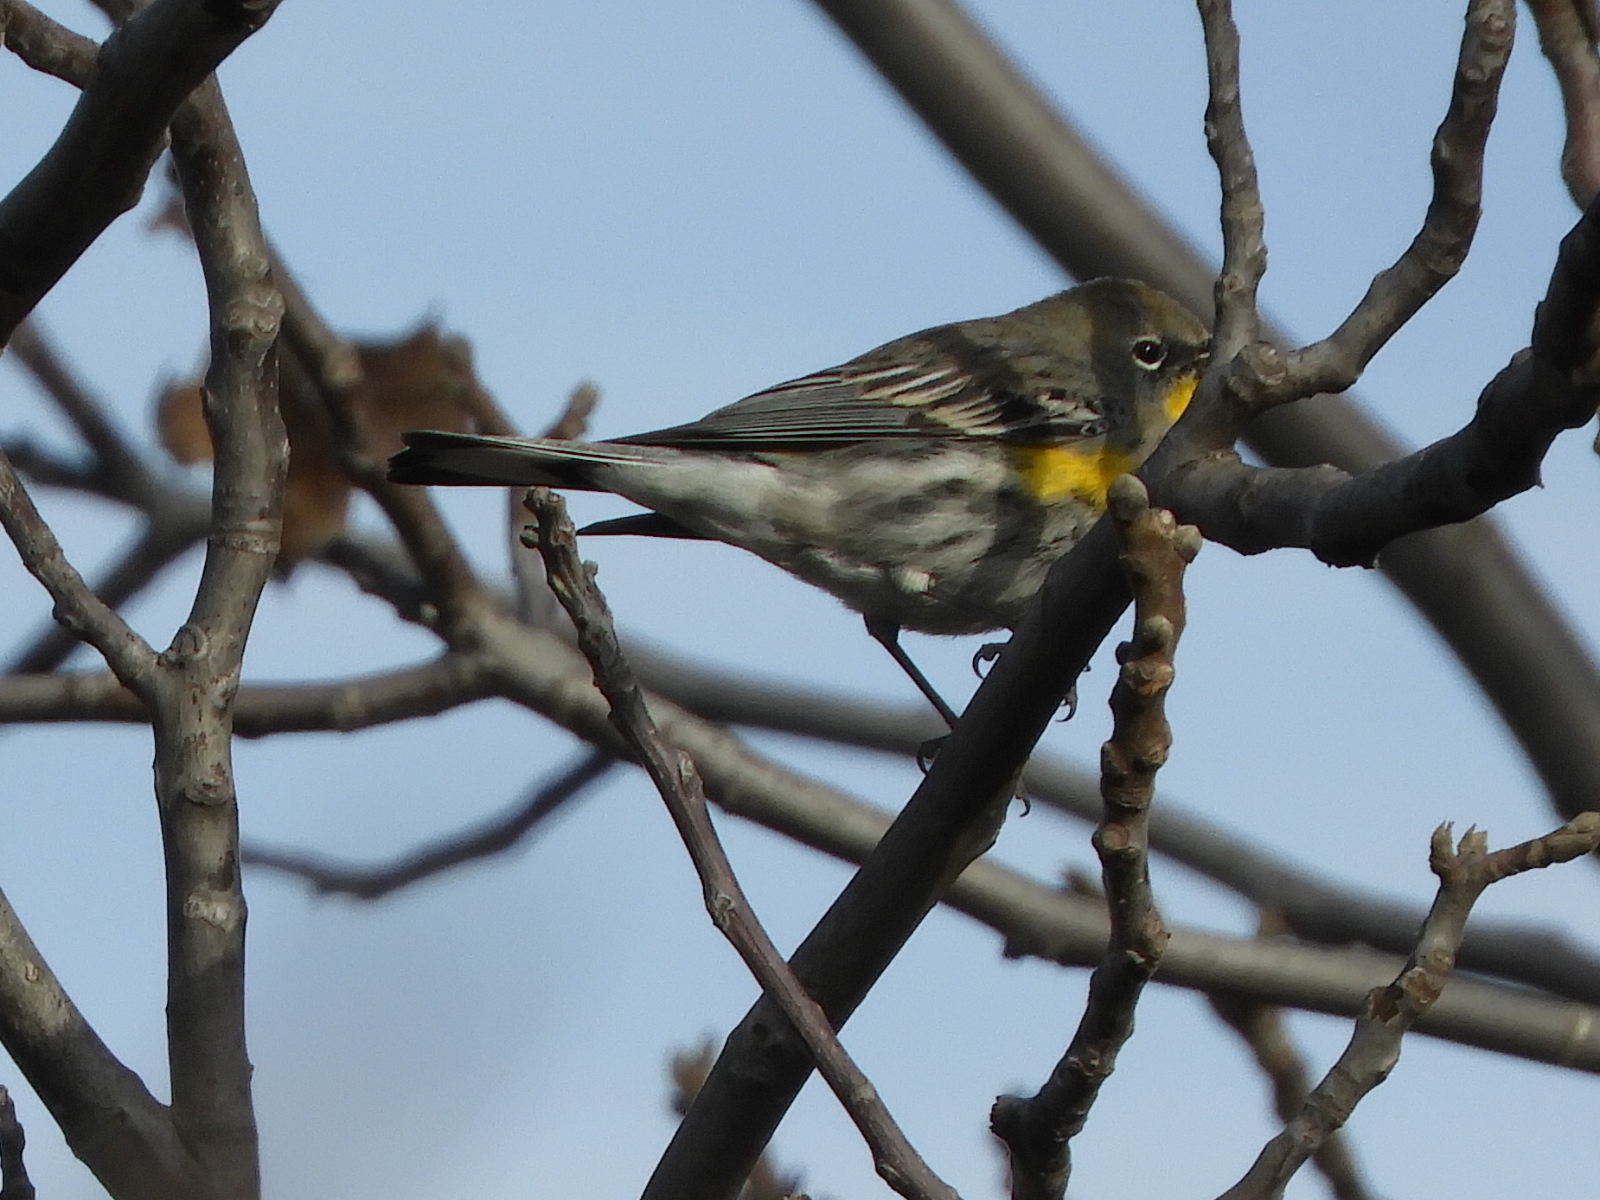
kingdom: Animalia
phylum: Chordata
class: Aves
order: Passeriformes
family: Parulidae
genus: Setophaga
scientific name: Setophaga coronata
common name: Myrtle warbler
